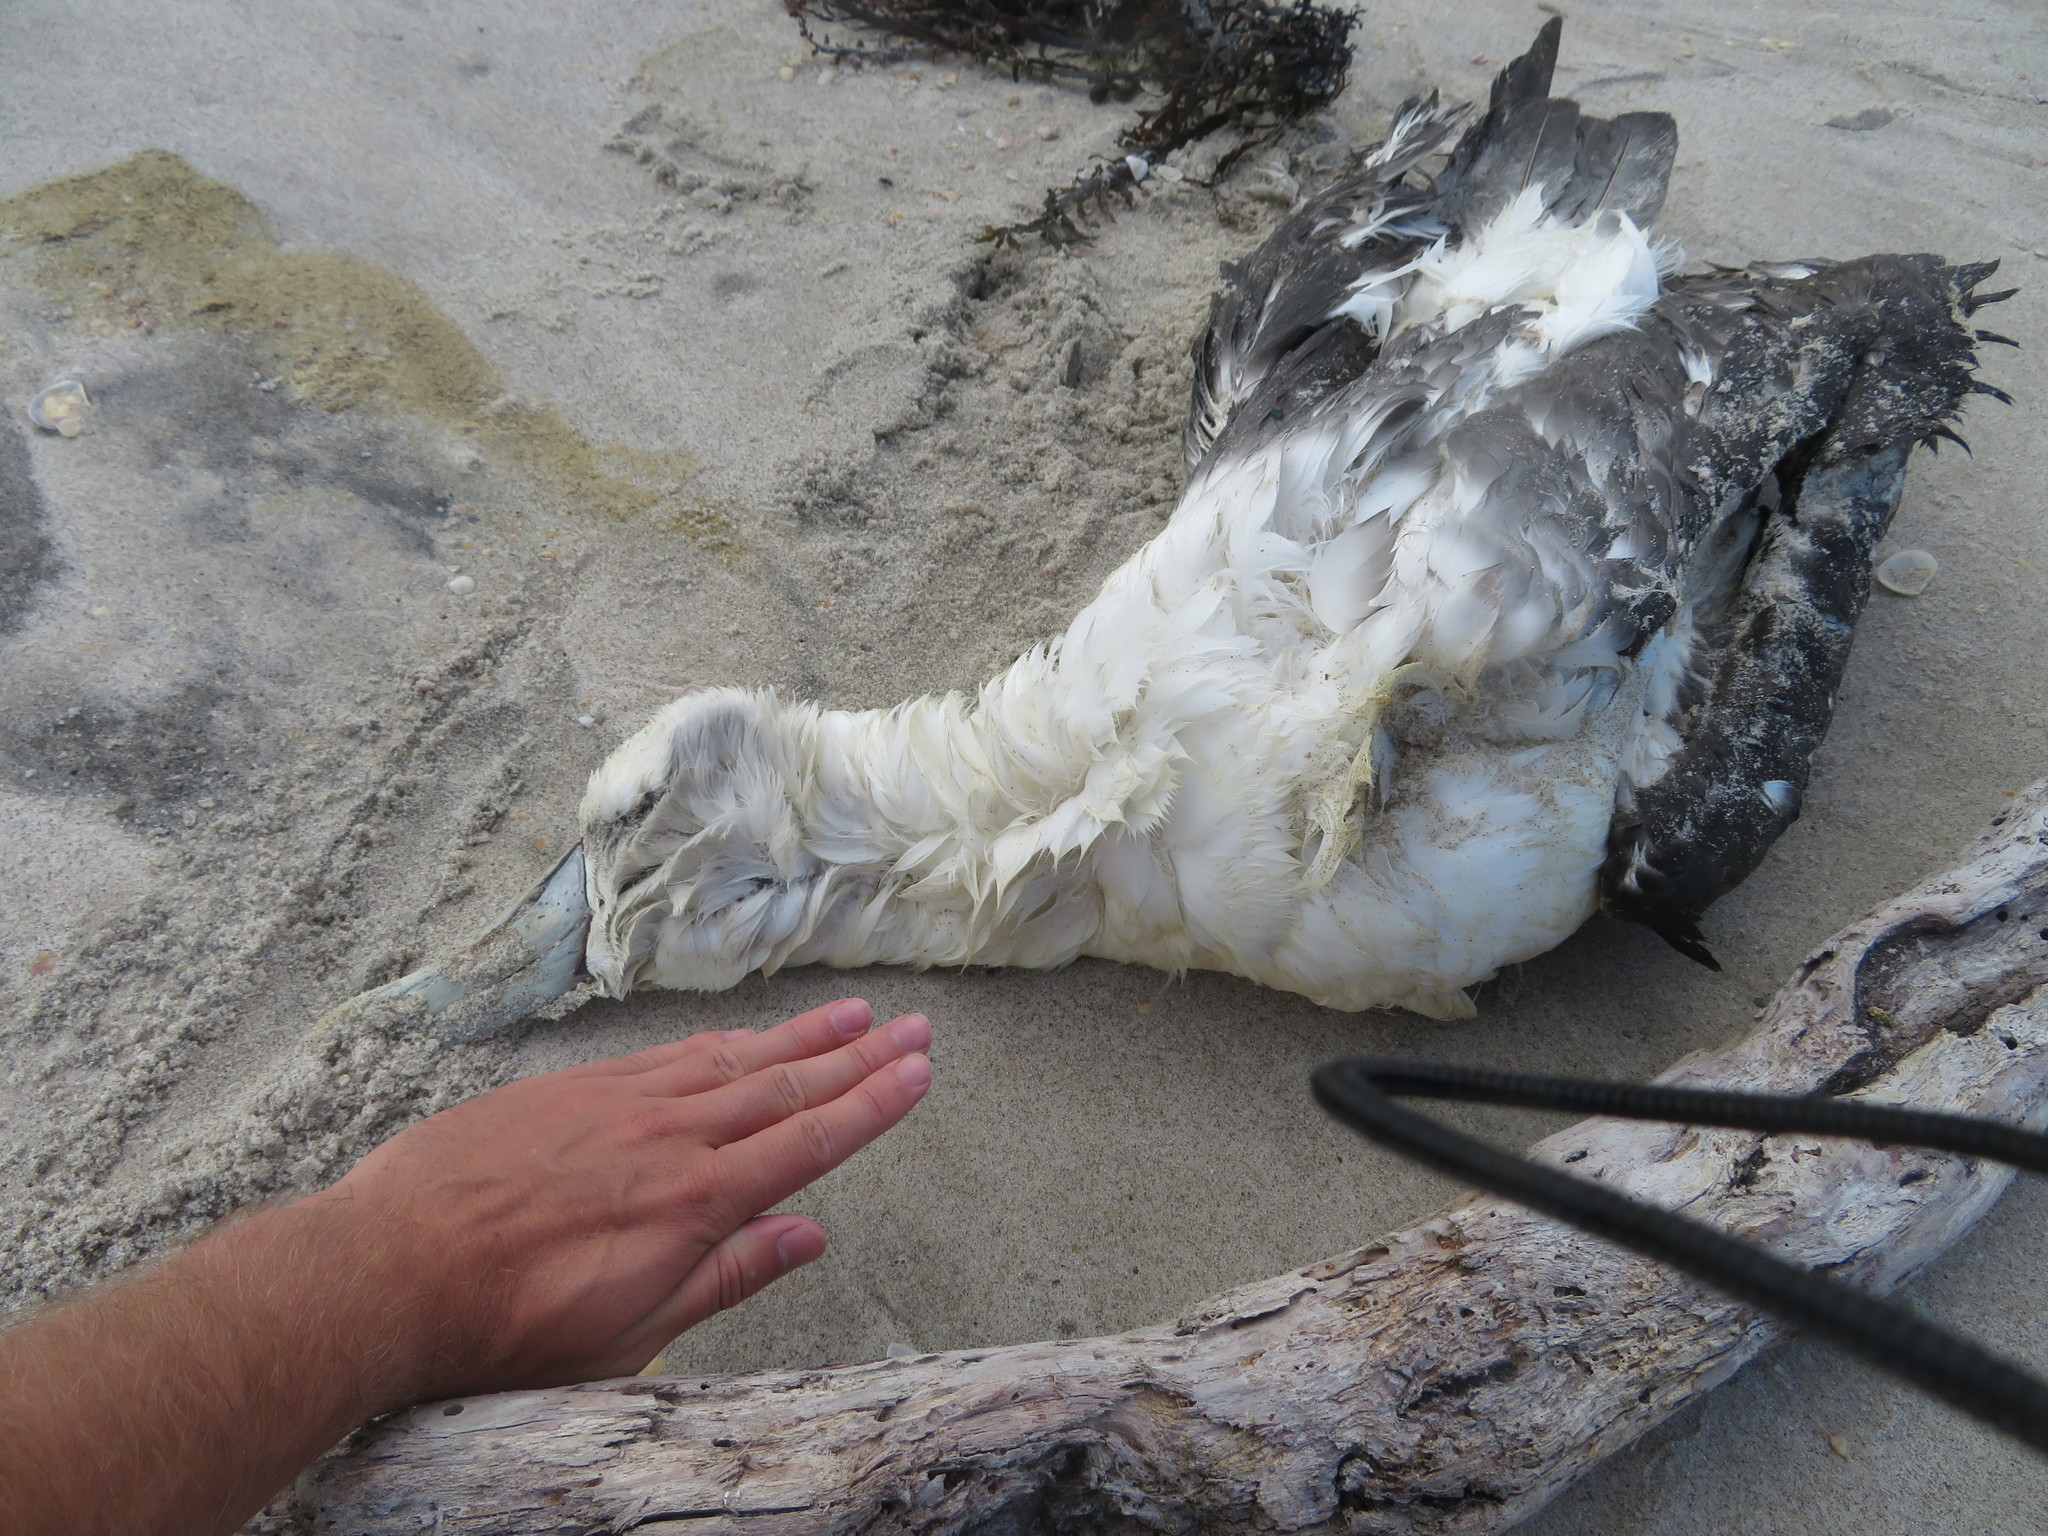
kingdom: Animalia
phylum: Chordata
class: Aves
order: Procellariiformes
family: Diomedeidae
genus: Thalassarche
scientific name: Thalassarche cauta
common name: Shy albatross
